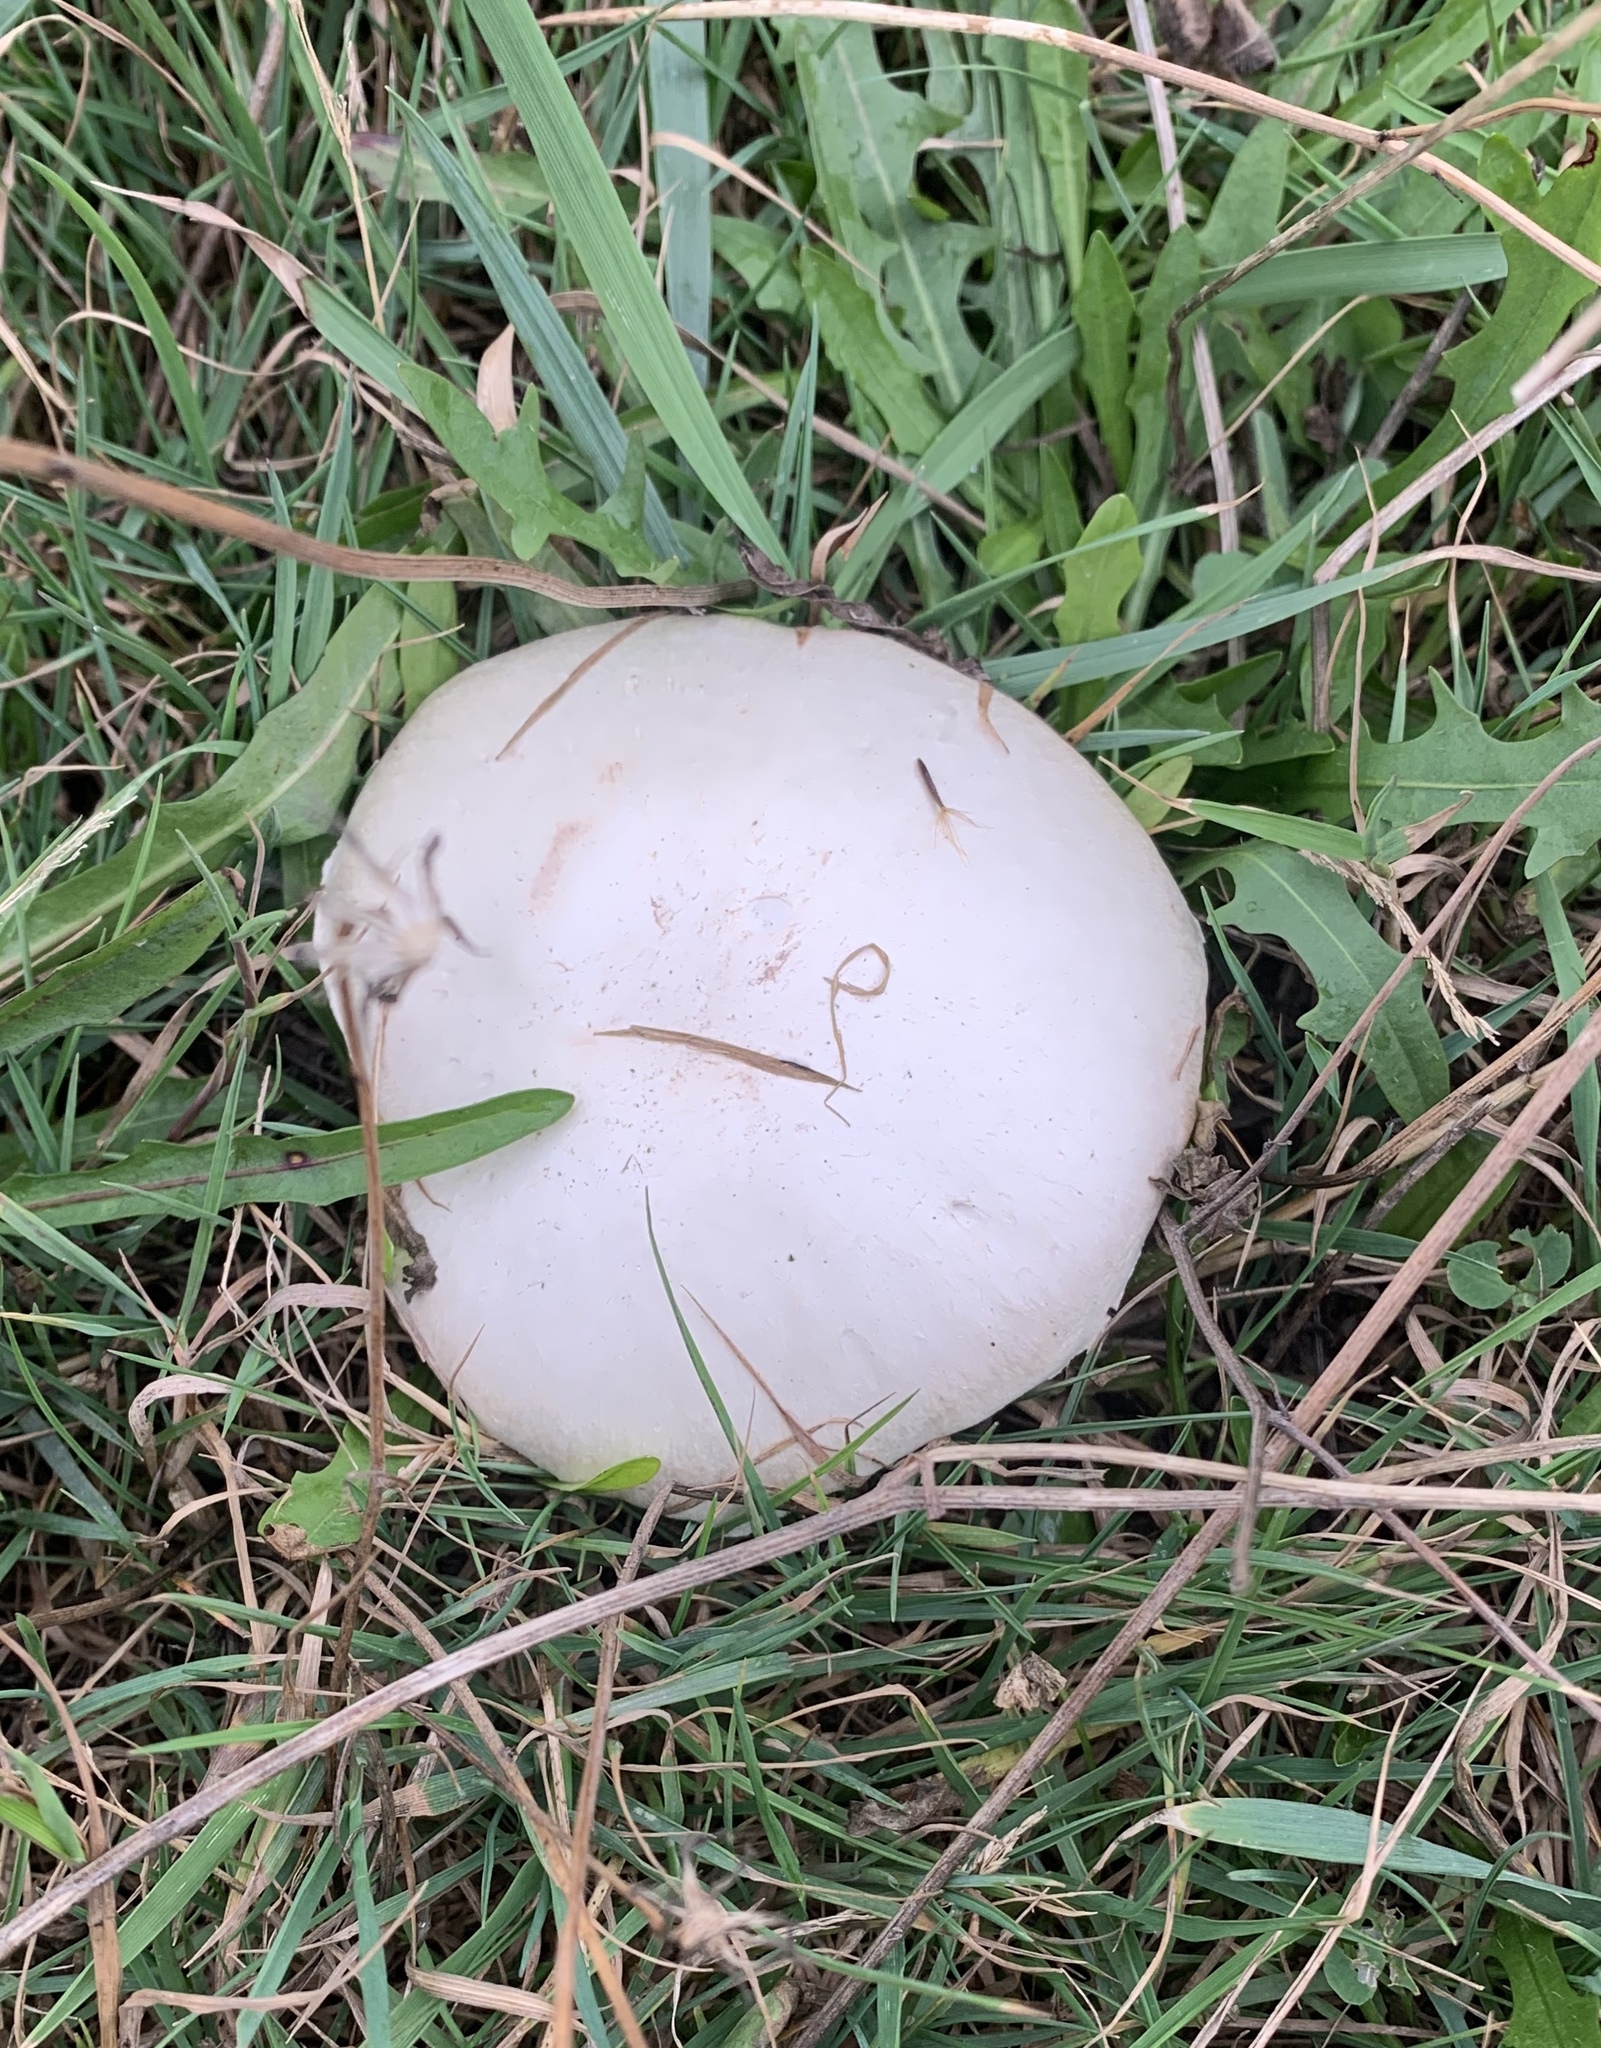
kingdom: Fungi
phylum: Basidiomycota
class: Agaricomycetes
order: Agaricales
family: Agaricaceae
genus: Agaricus
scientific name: Agaricus campestris
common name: Field mushroom
